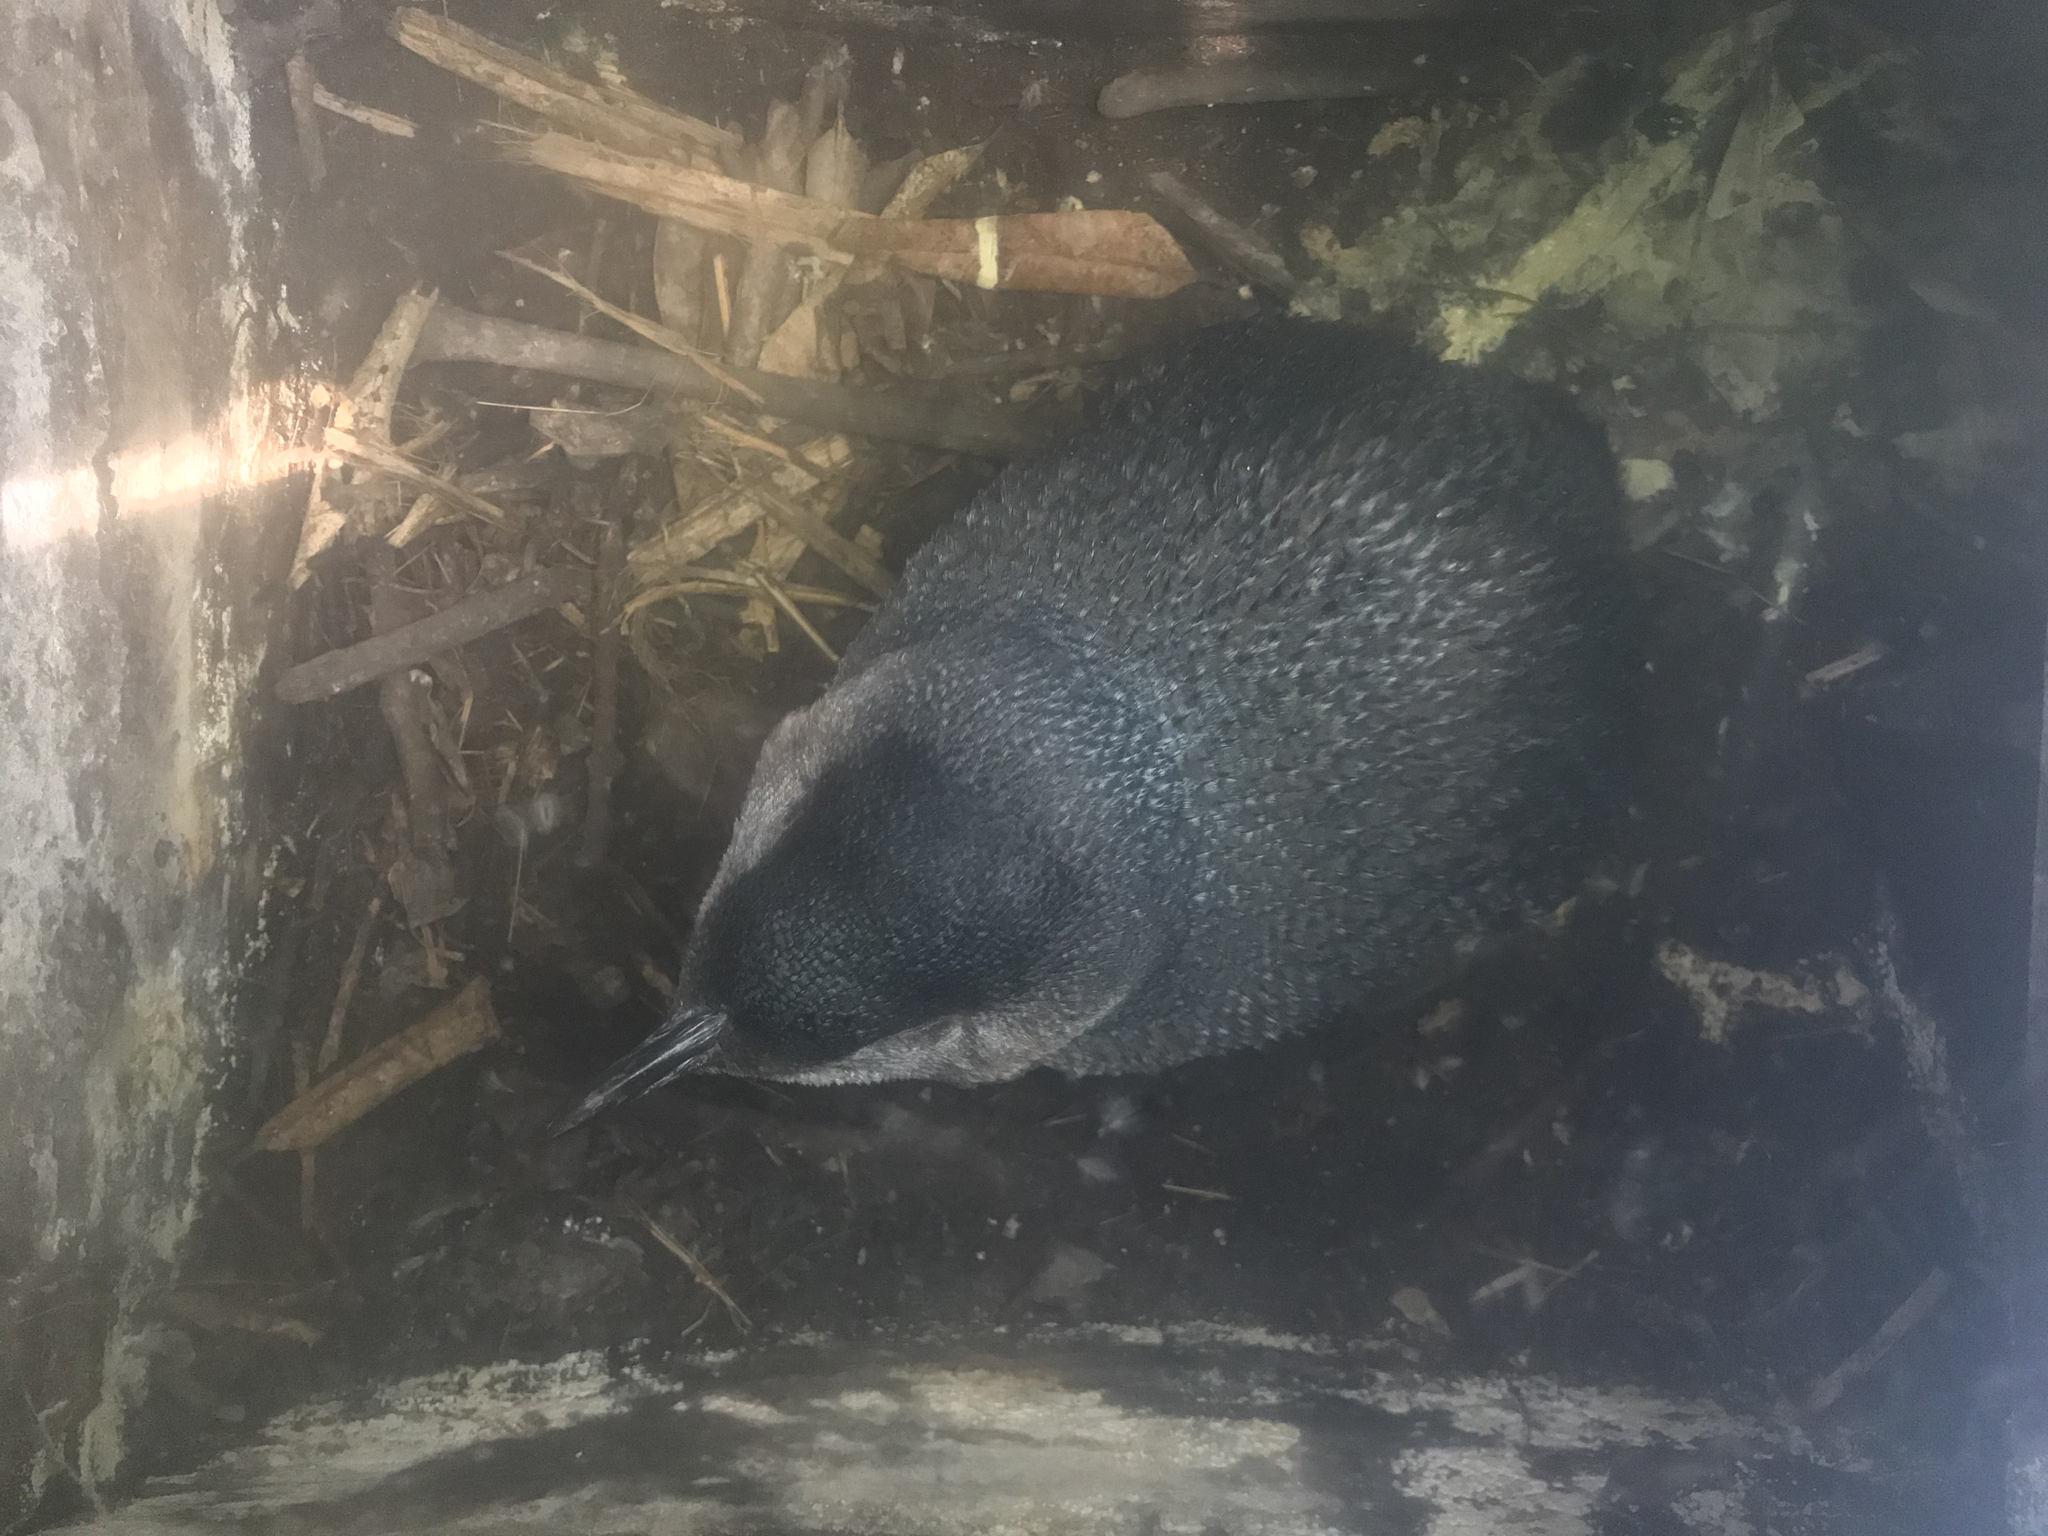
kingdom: Animalia
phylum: Chordata
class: Aves
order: Sphenisciformes
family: Spheniscidae
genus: Eudyptula
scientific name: Eudyptula minor
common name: Little penguin
